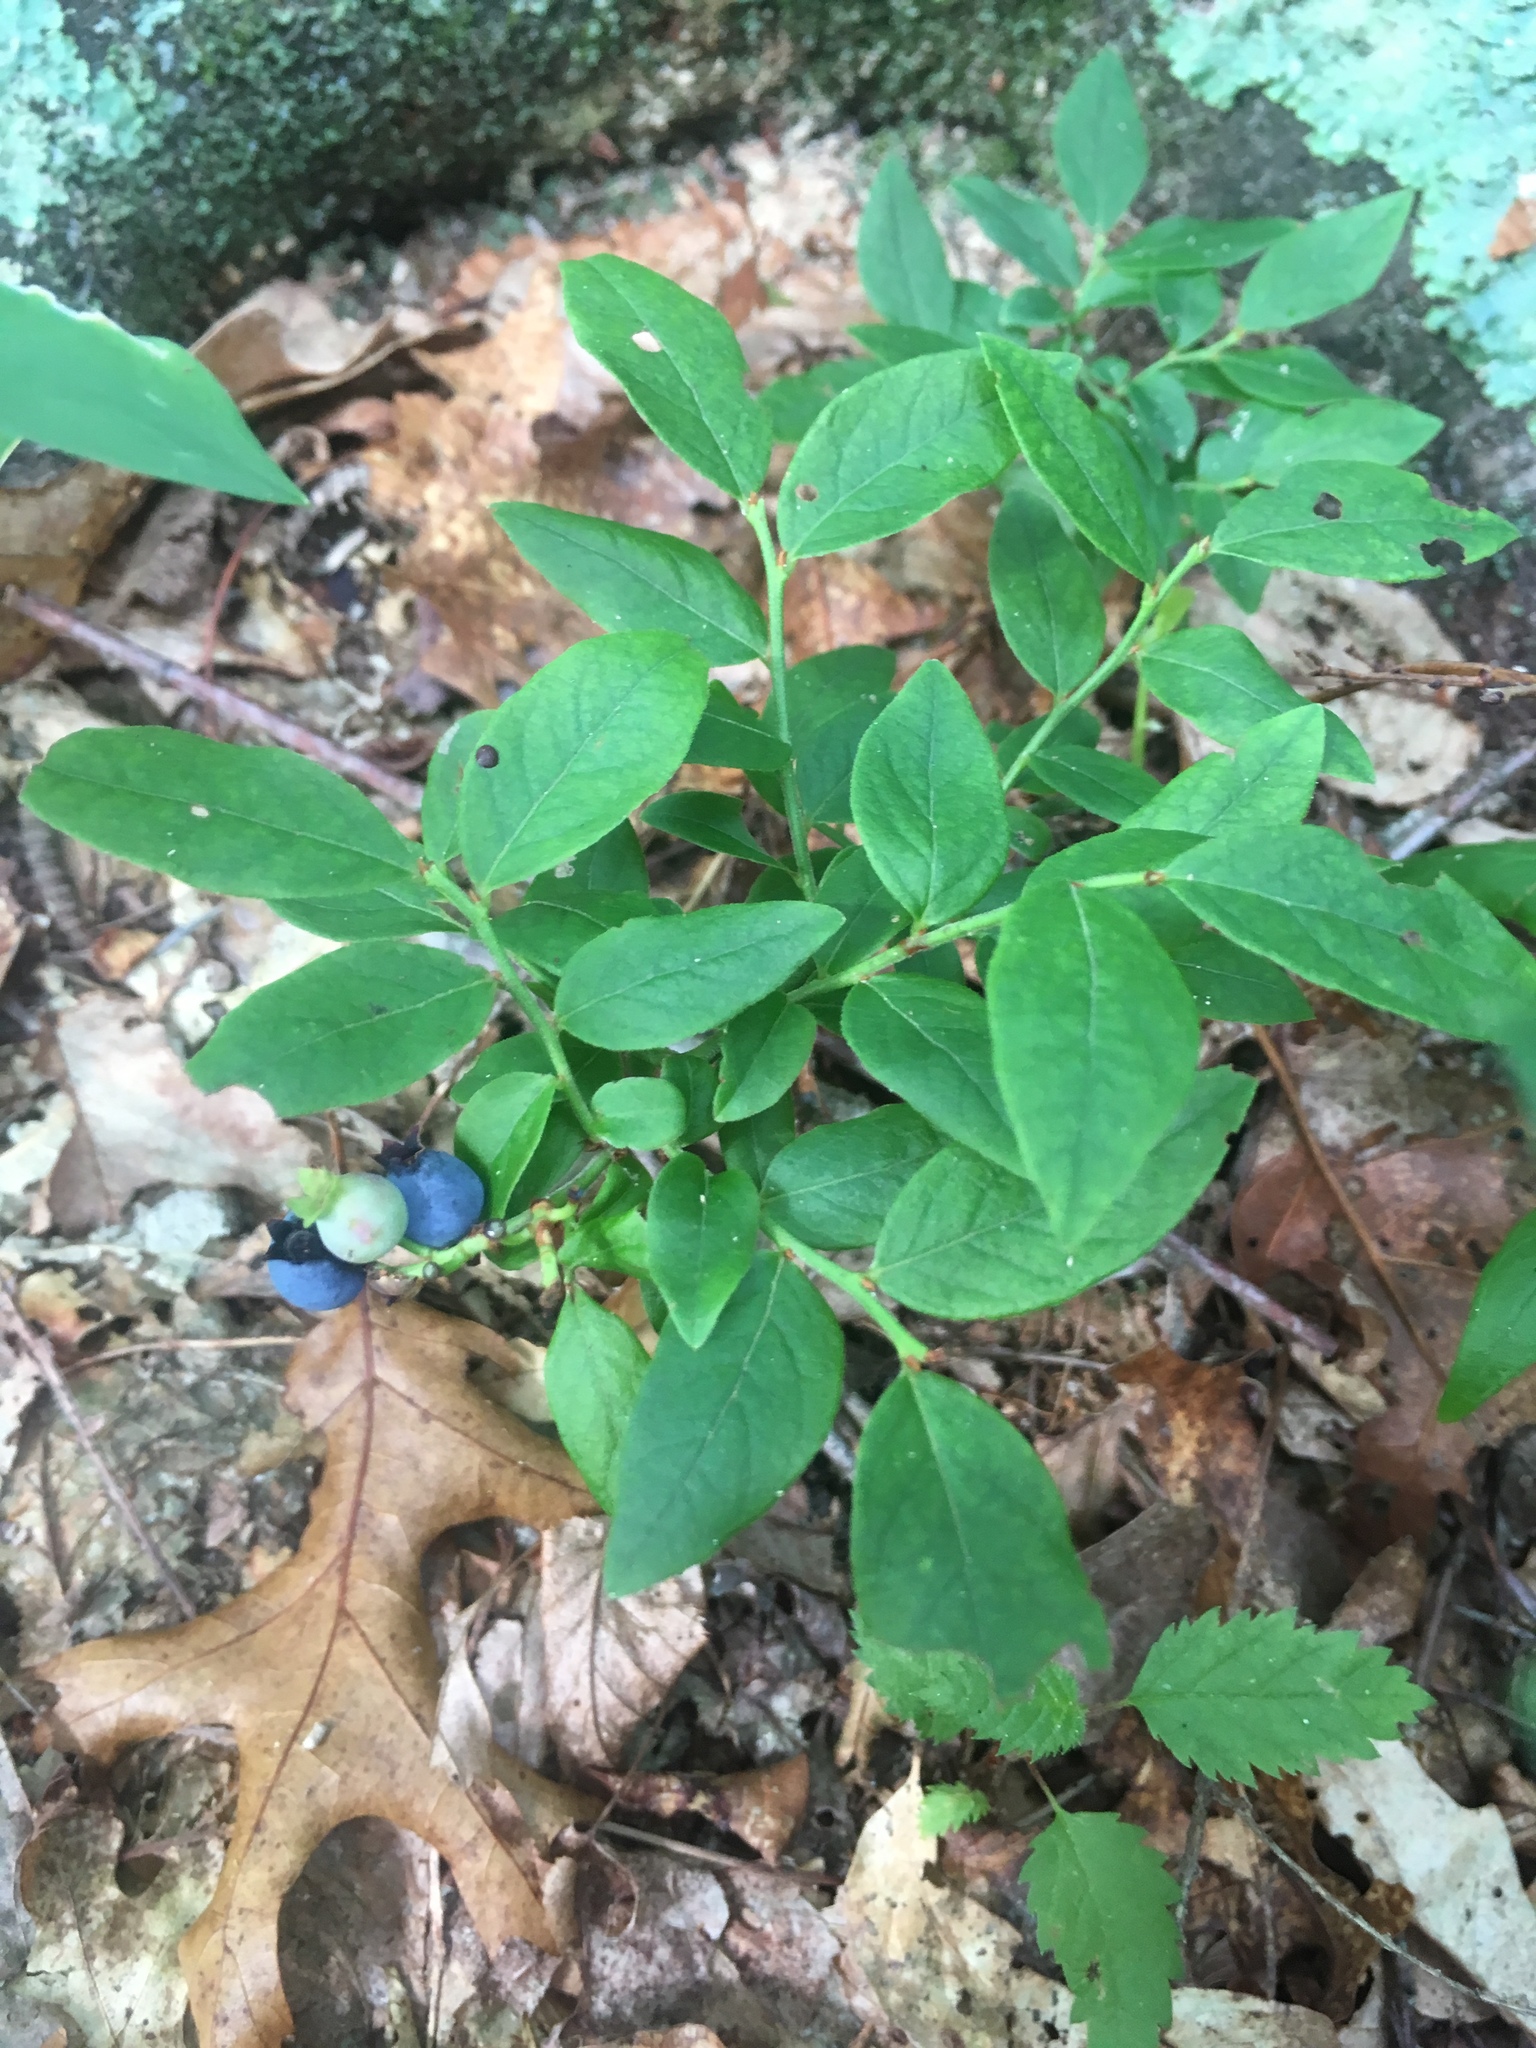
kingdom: Plantae
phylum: Tracheophyta
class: Magnoliopsida
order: Ericales
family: Ericaceae
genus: Vaccinium
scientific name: Vaccinium angustifolium
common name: Early lowbush blueberry
